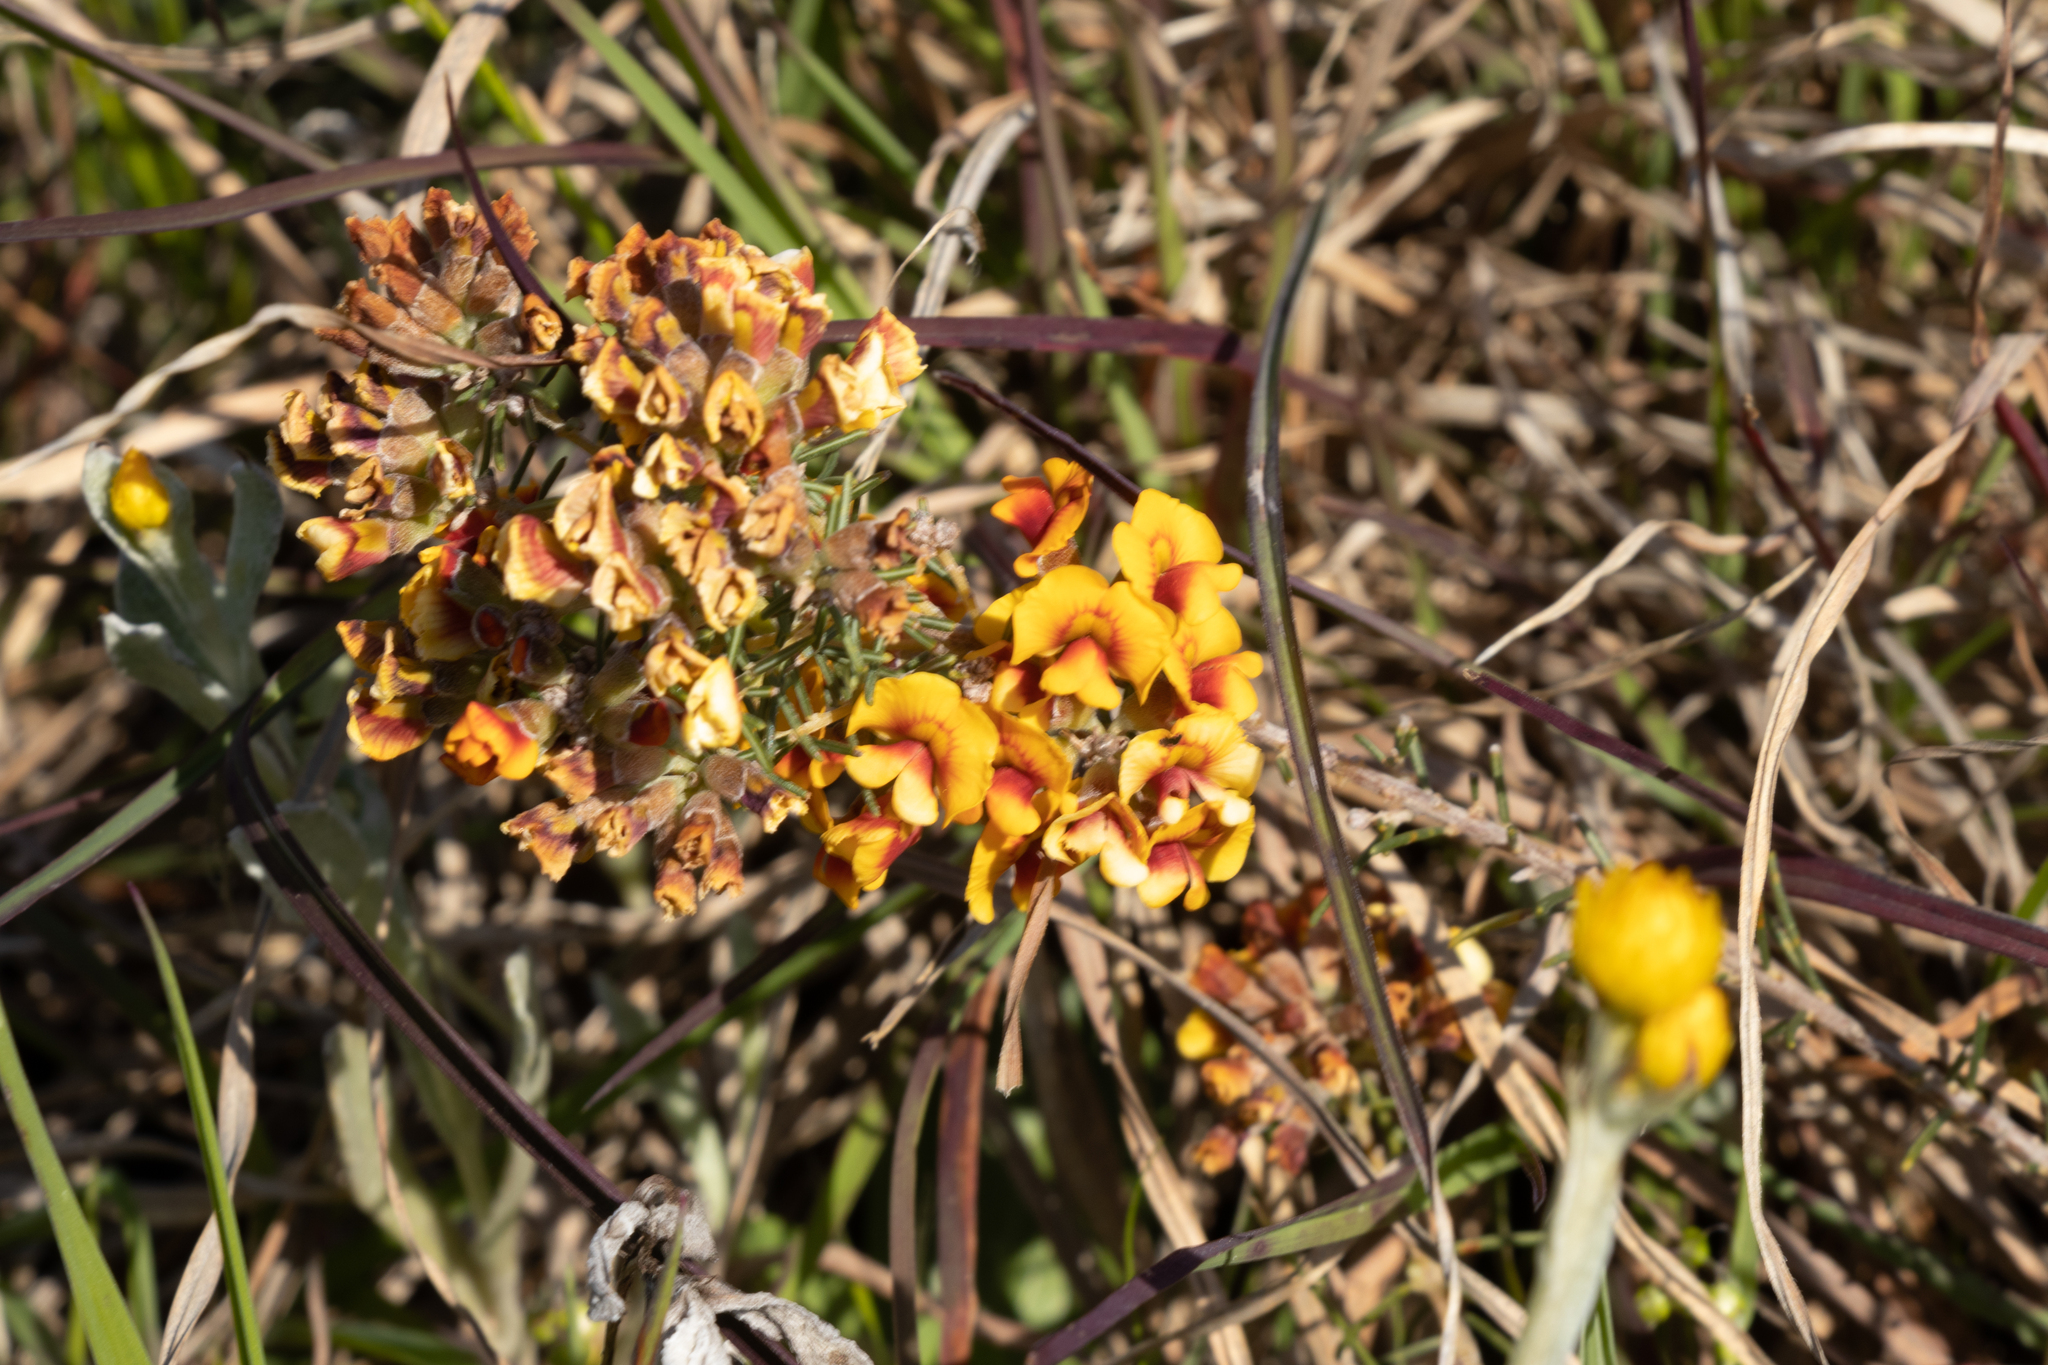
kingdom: Plantae
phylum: Tracheophyta
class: Magnoliopsida
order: Fabales
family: Fabaceae
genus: Dillwynia
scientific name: Dillwynia cinerascens
